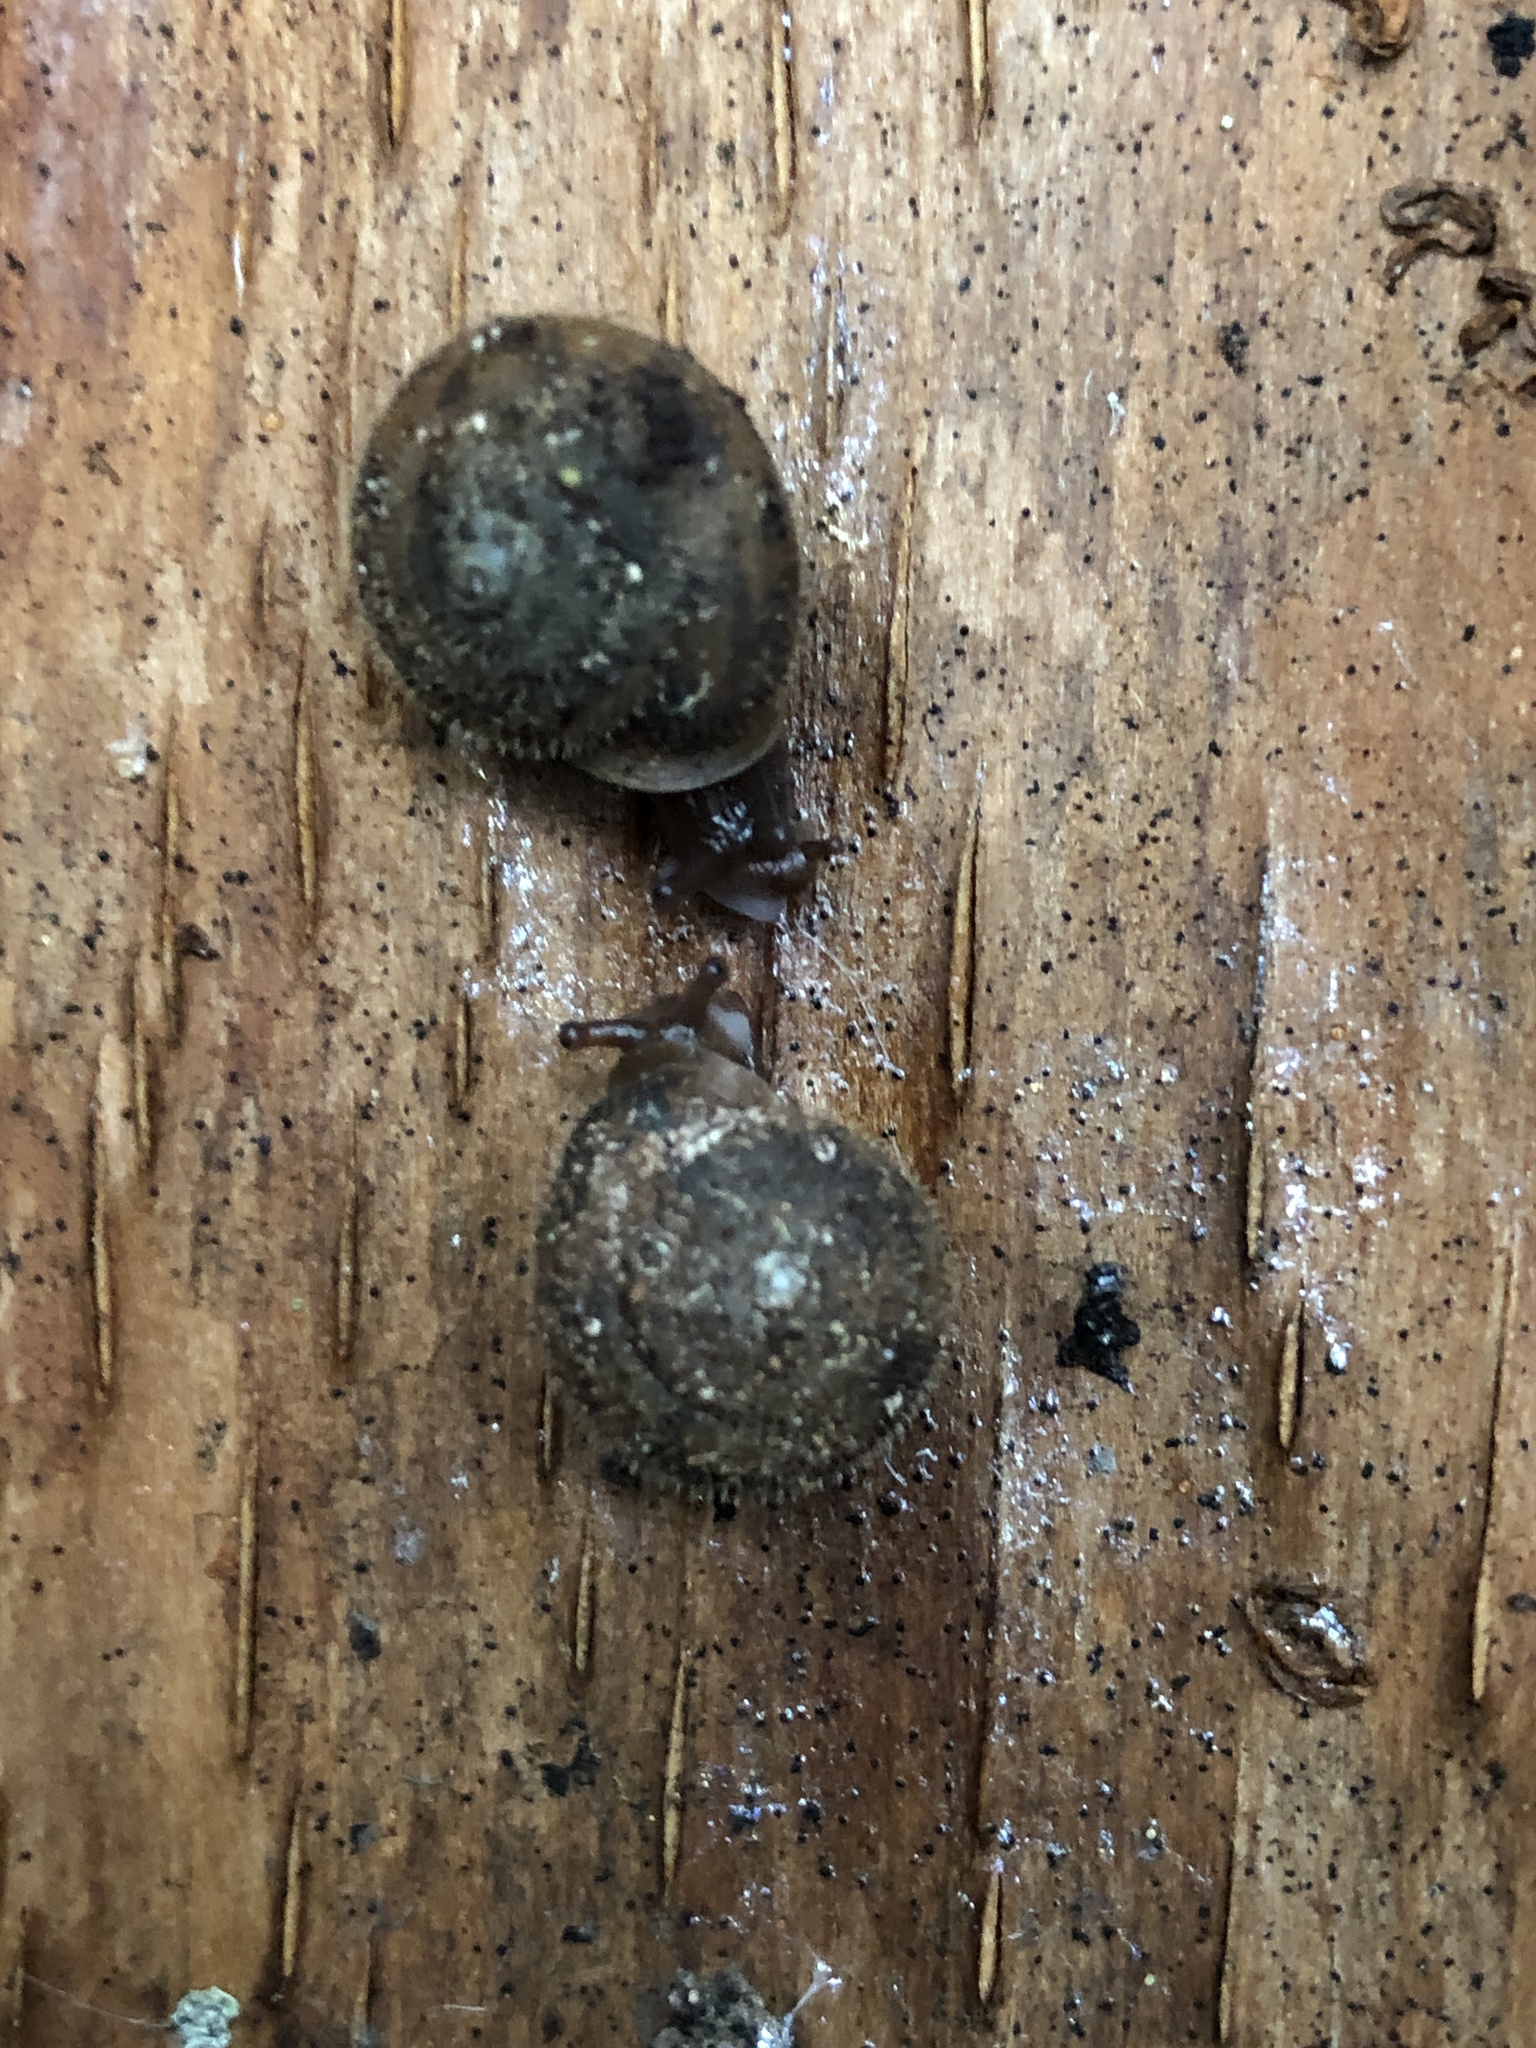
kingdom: Animalia
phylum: Mollusca
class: Gastropoda
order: Stylommatophora
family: Polygyridae
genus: Vespericola
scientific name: Vespericola columbianus
